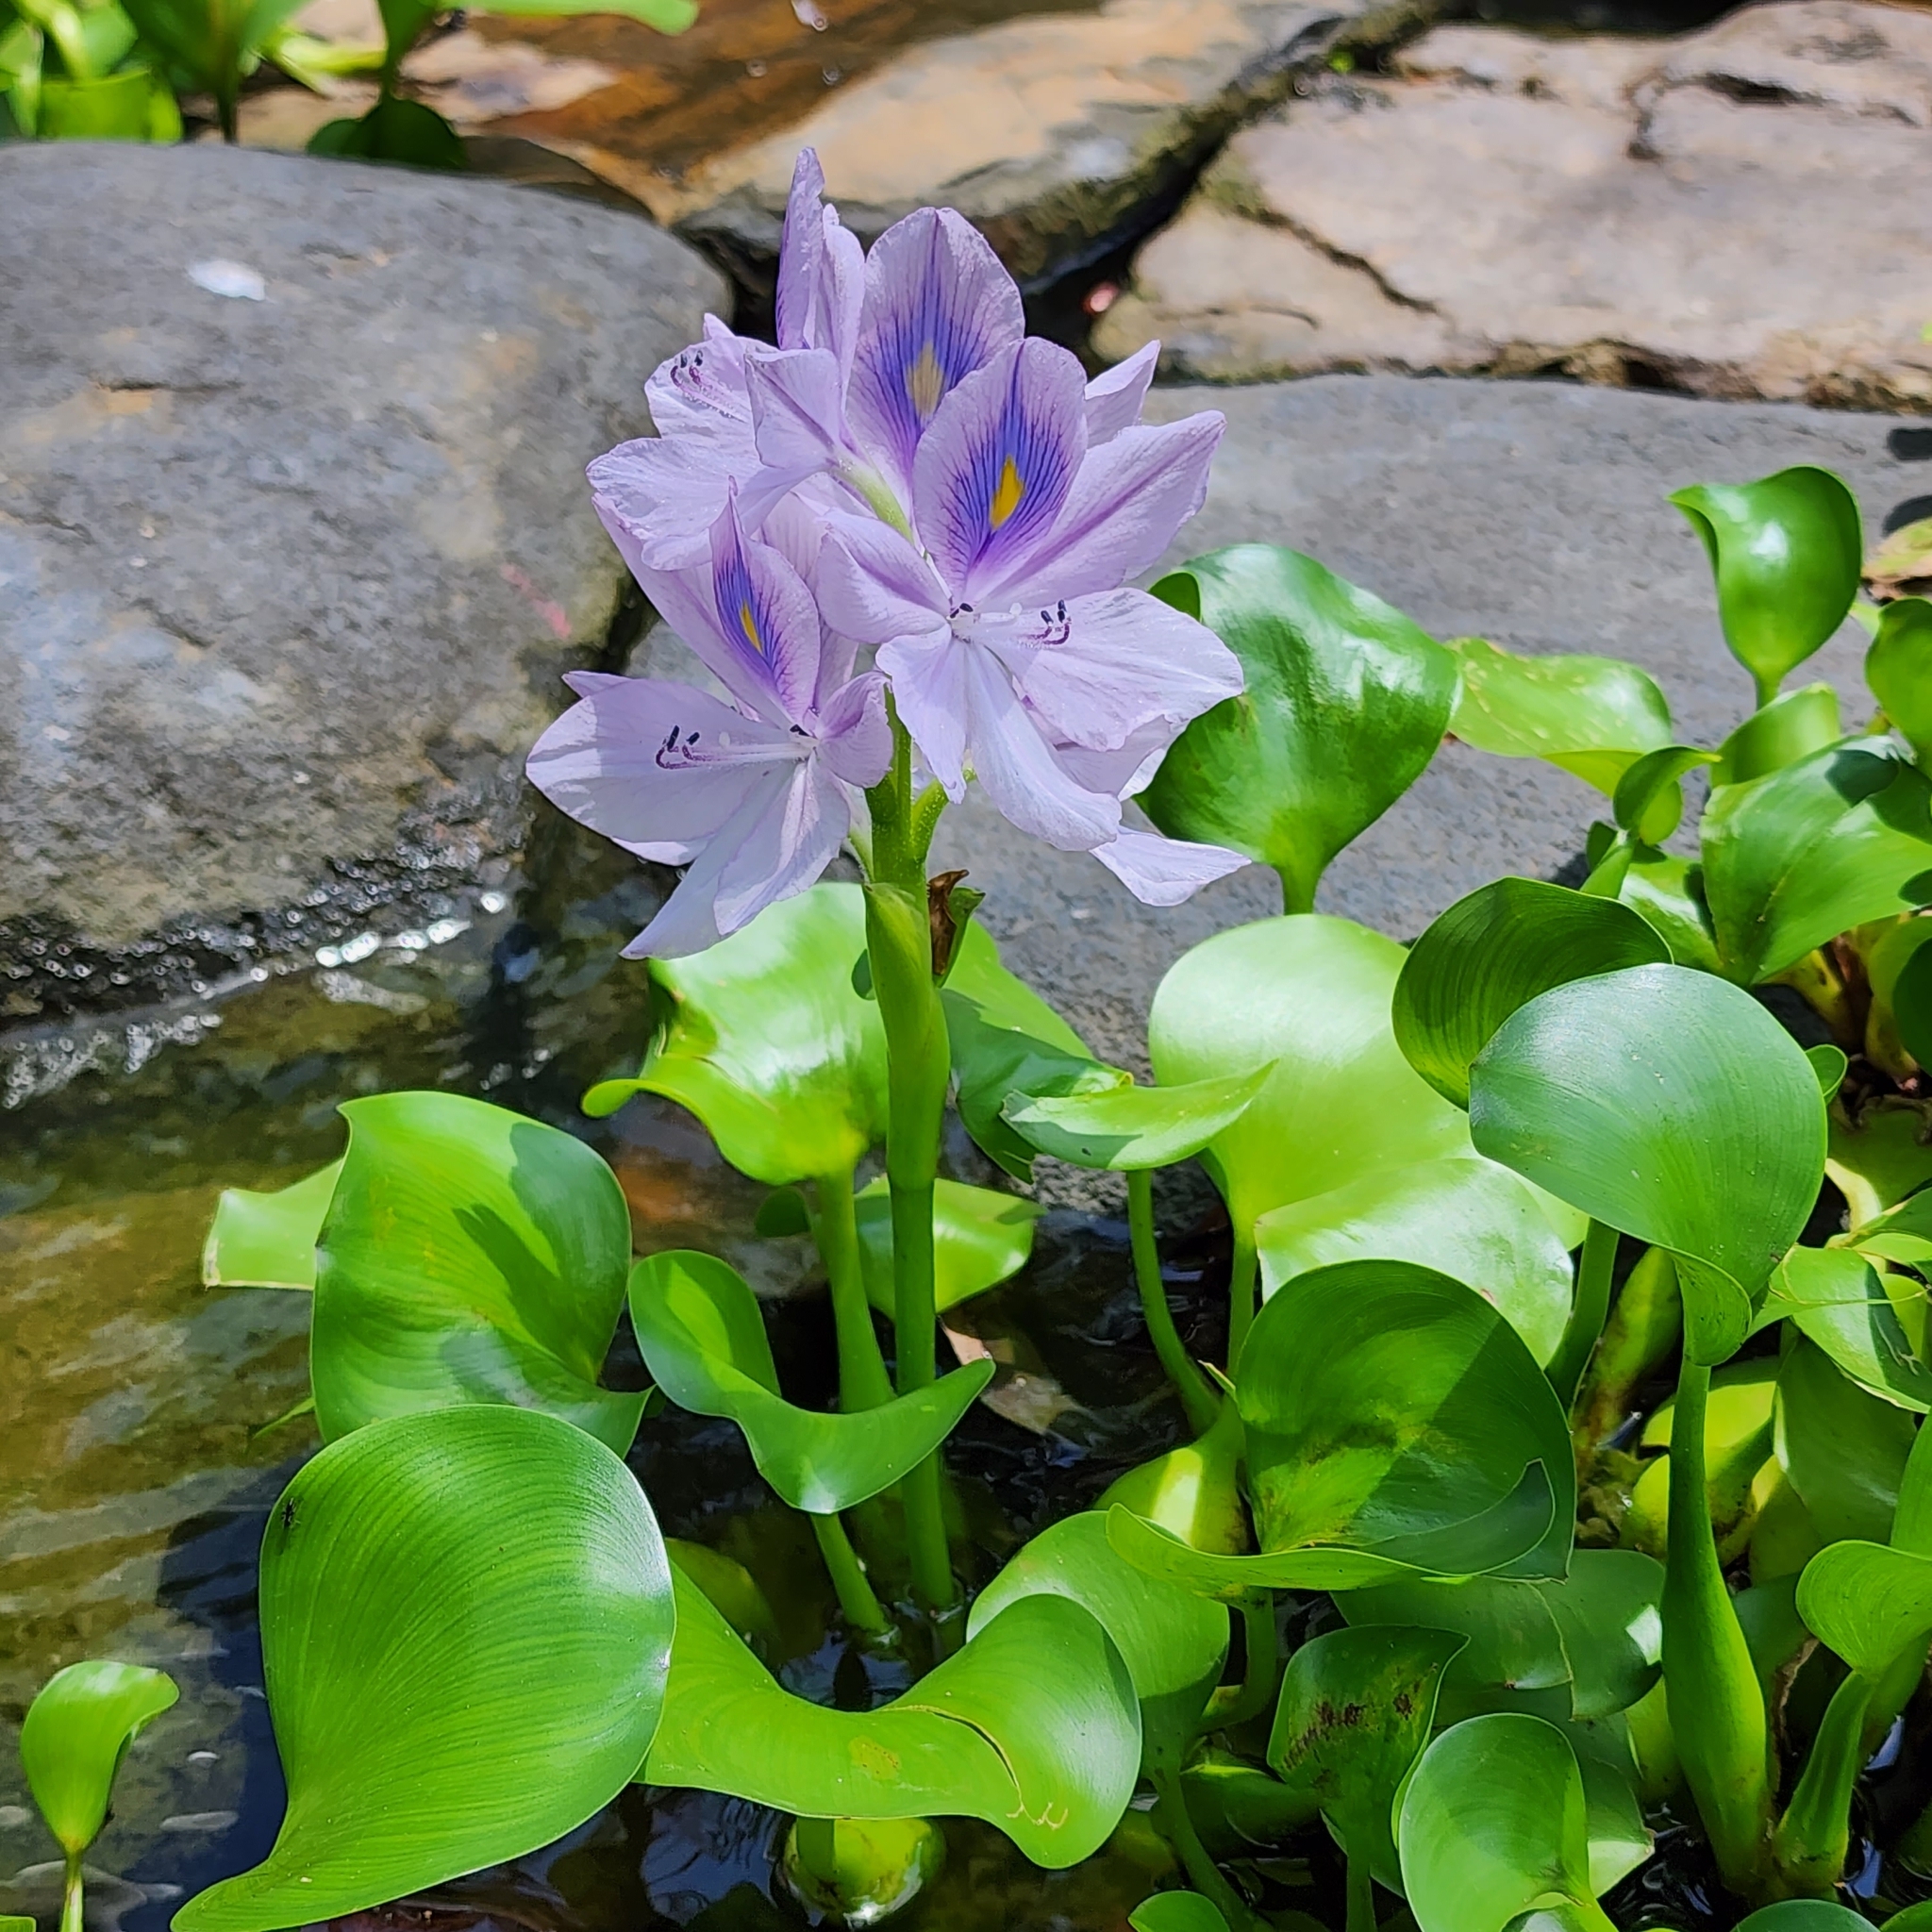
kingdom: Plantae
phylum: Tracheophyta
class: Liliopsida
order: Commelinales
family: Pontederiaceae
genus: Pontederia
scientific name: Pontederia crassipes
